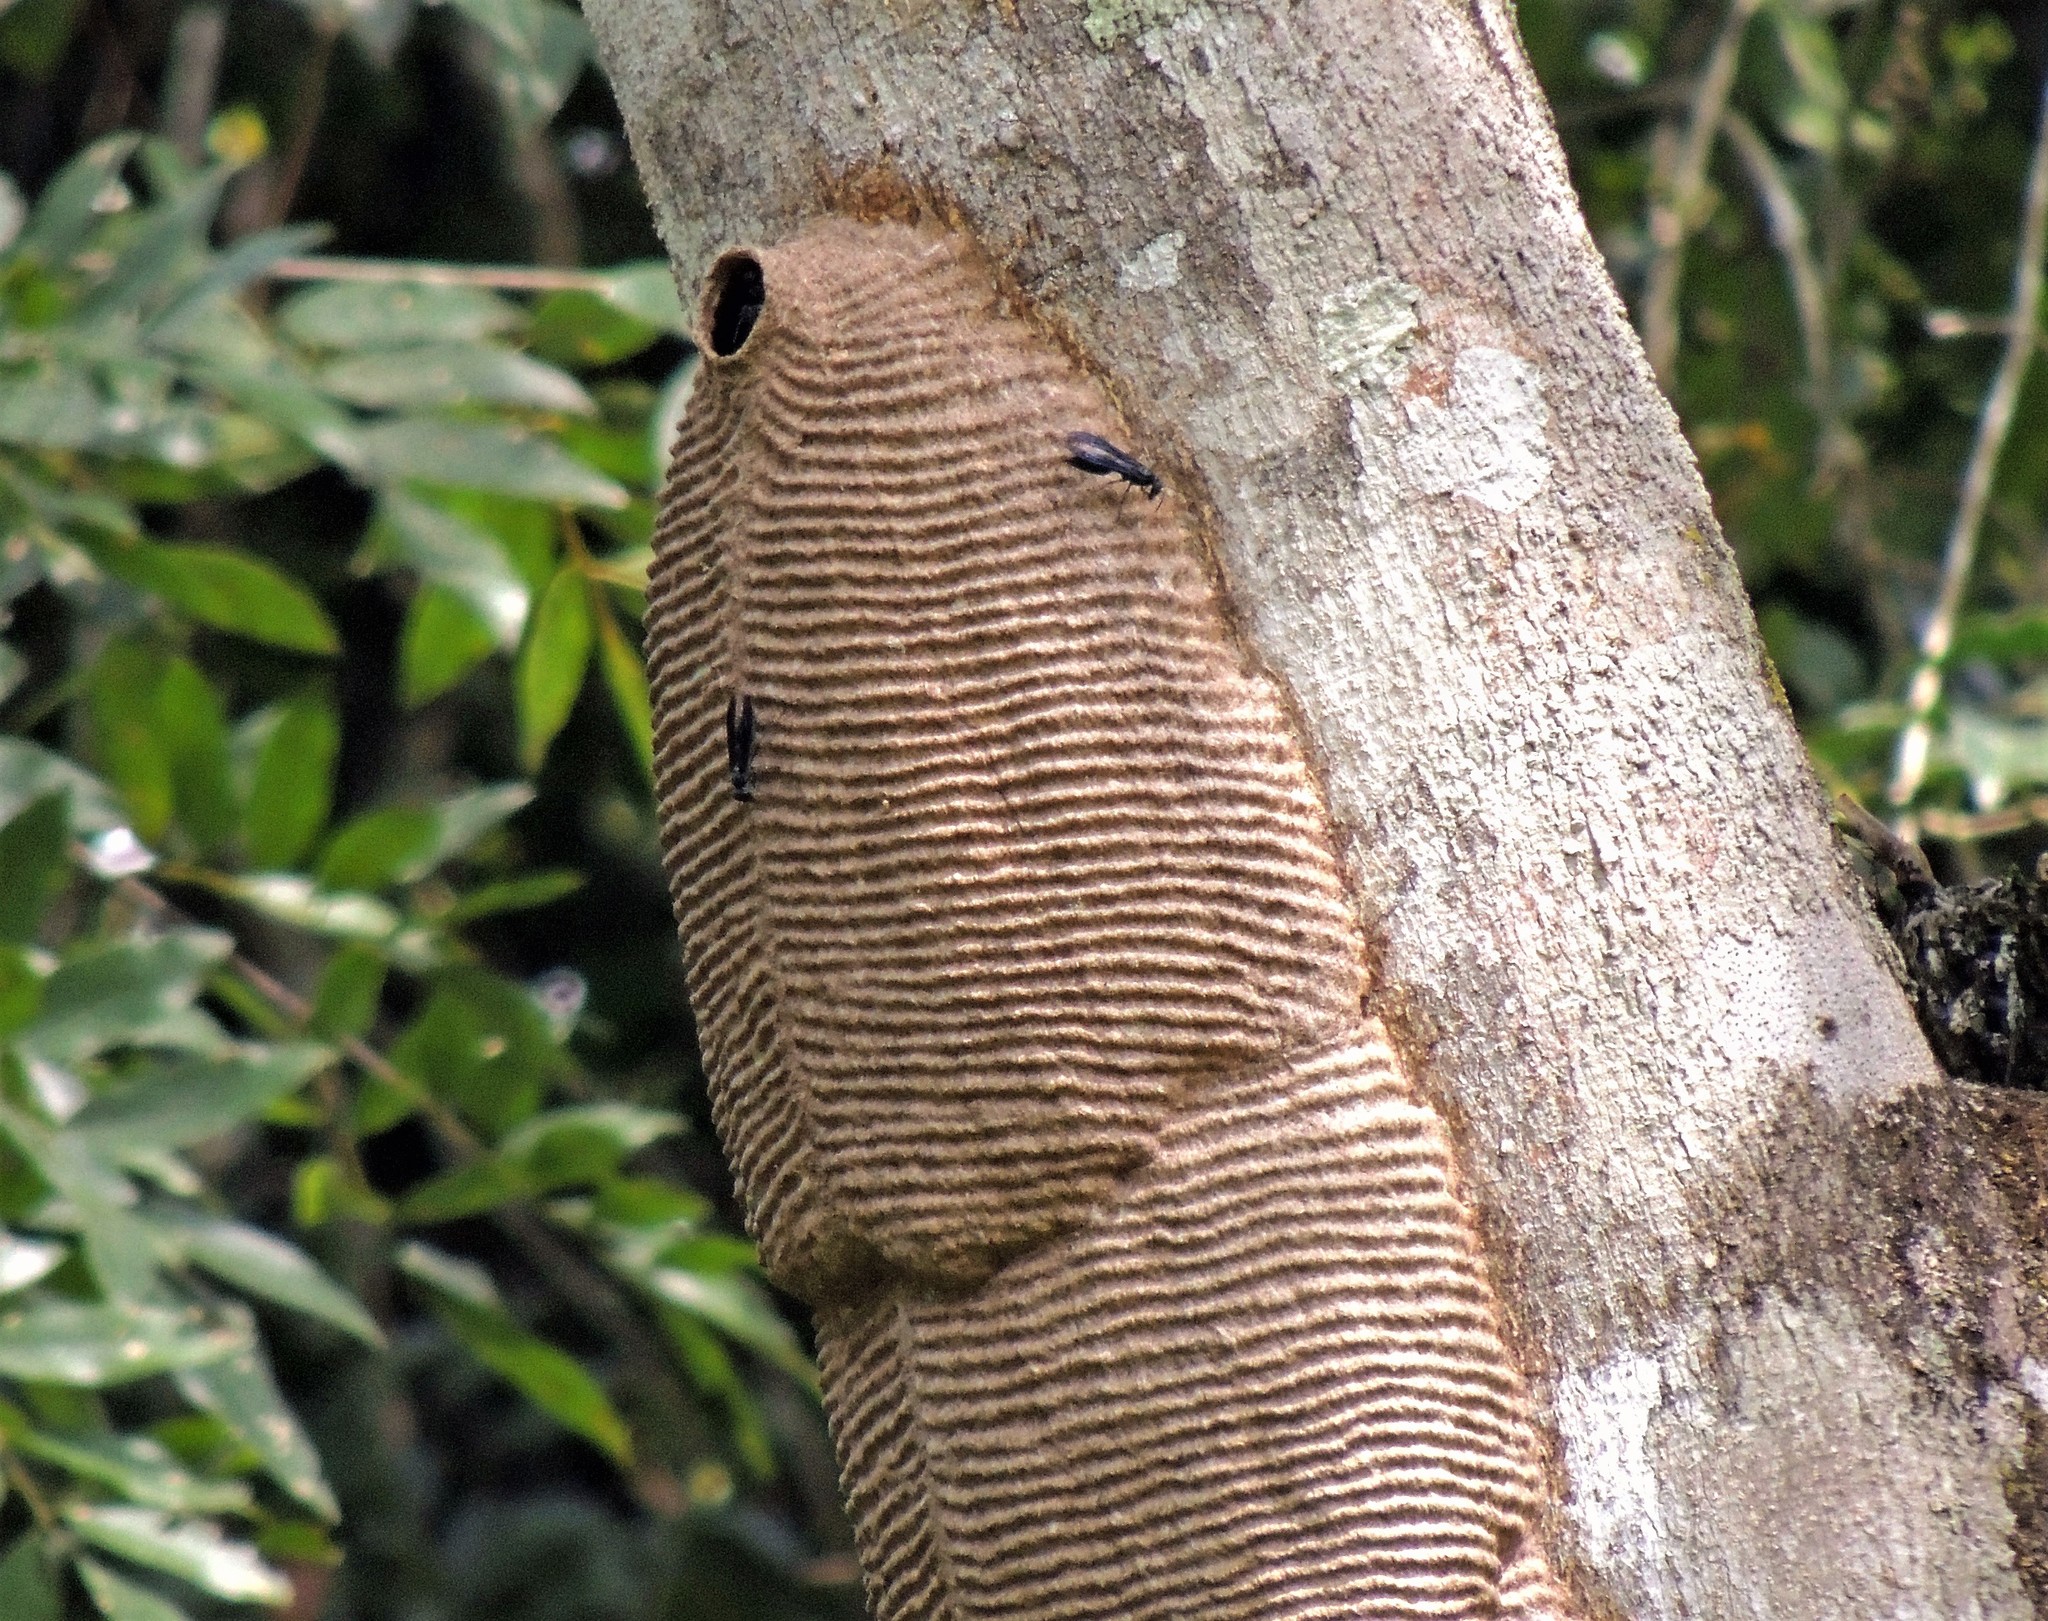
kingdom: Animalia
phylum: Arthropoda
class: Insecta
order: Hymenoptera
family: Vespidae
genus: Synoeca
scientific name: Synoeca cyanea
